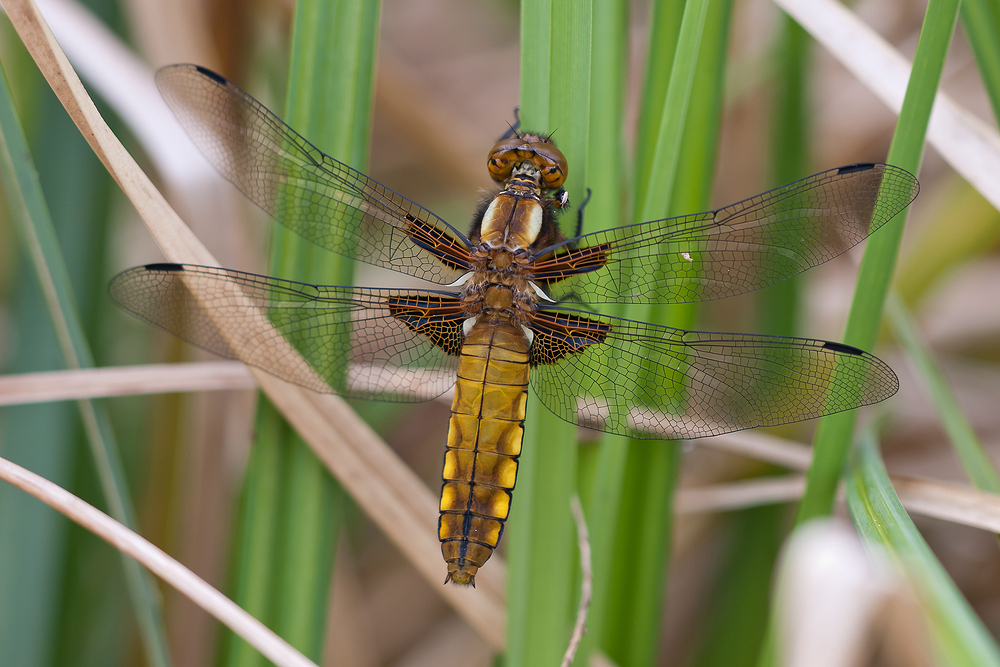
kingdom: Animalia
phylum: Arthropoda
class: Insecta
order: Odonata
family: Libellulidae
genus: Libellula
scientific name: Libellula depressa
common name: Broad-bodied chaser
